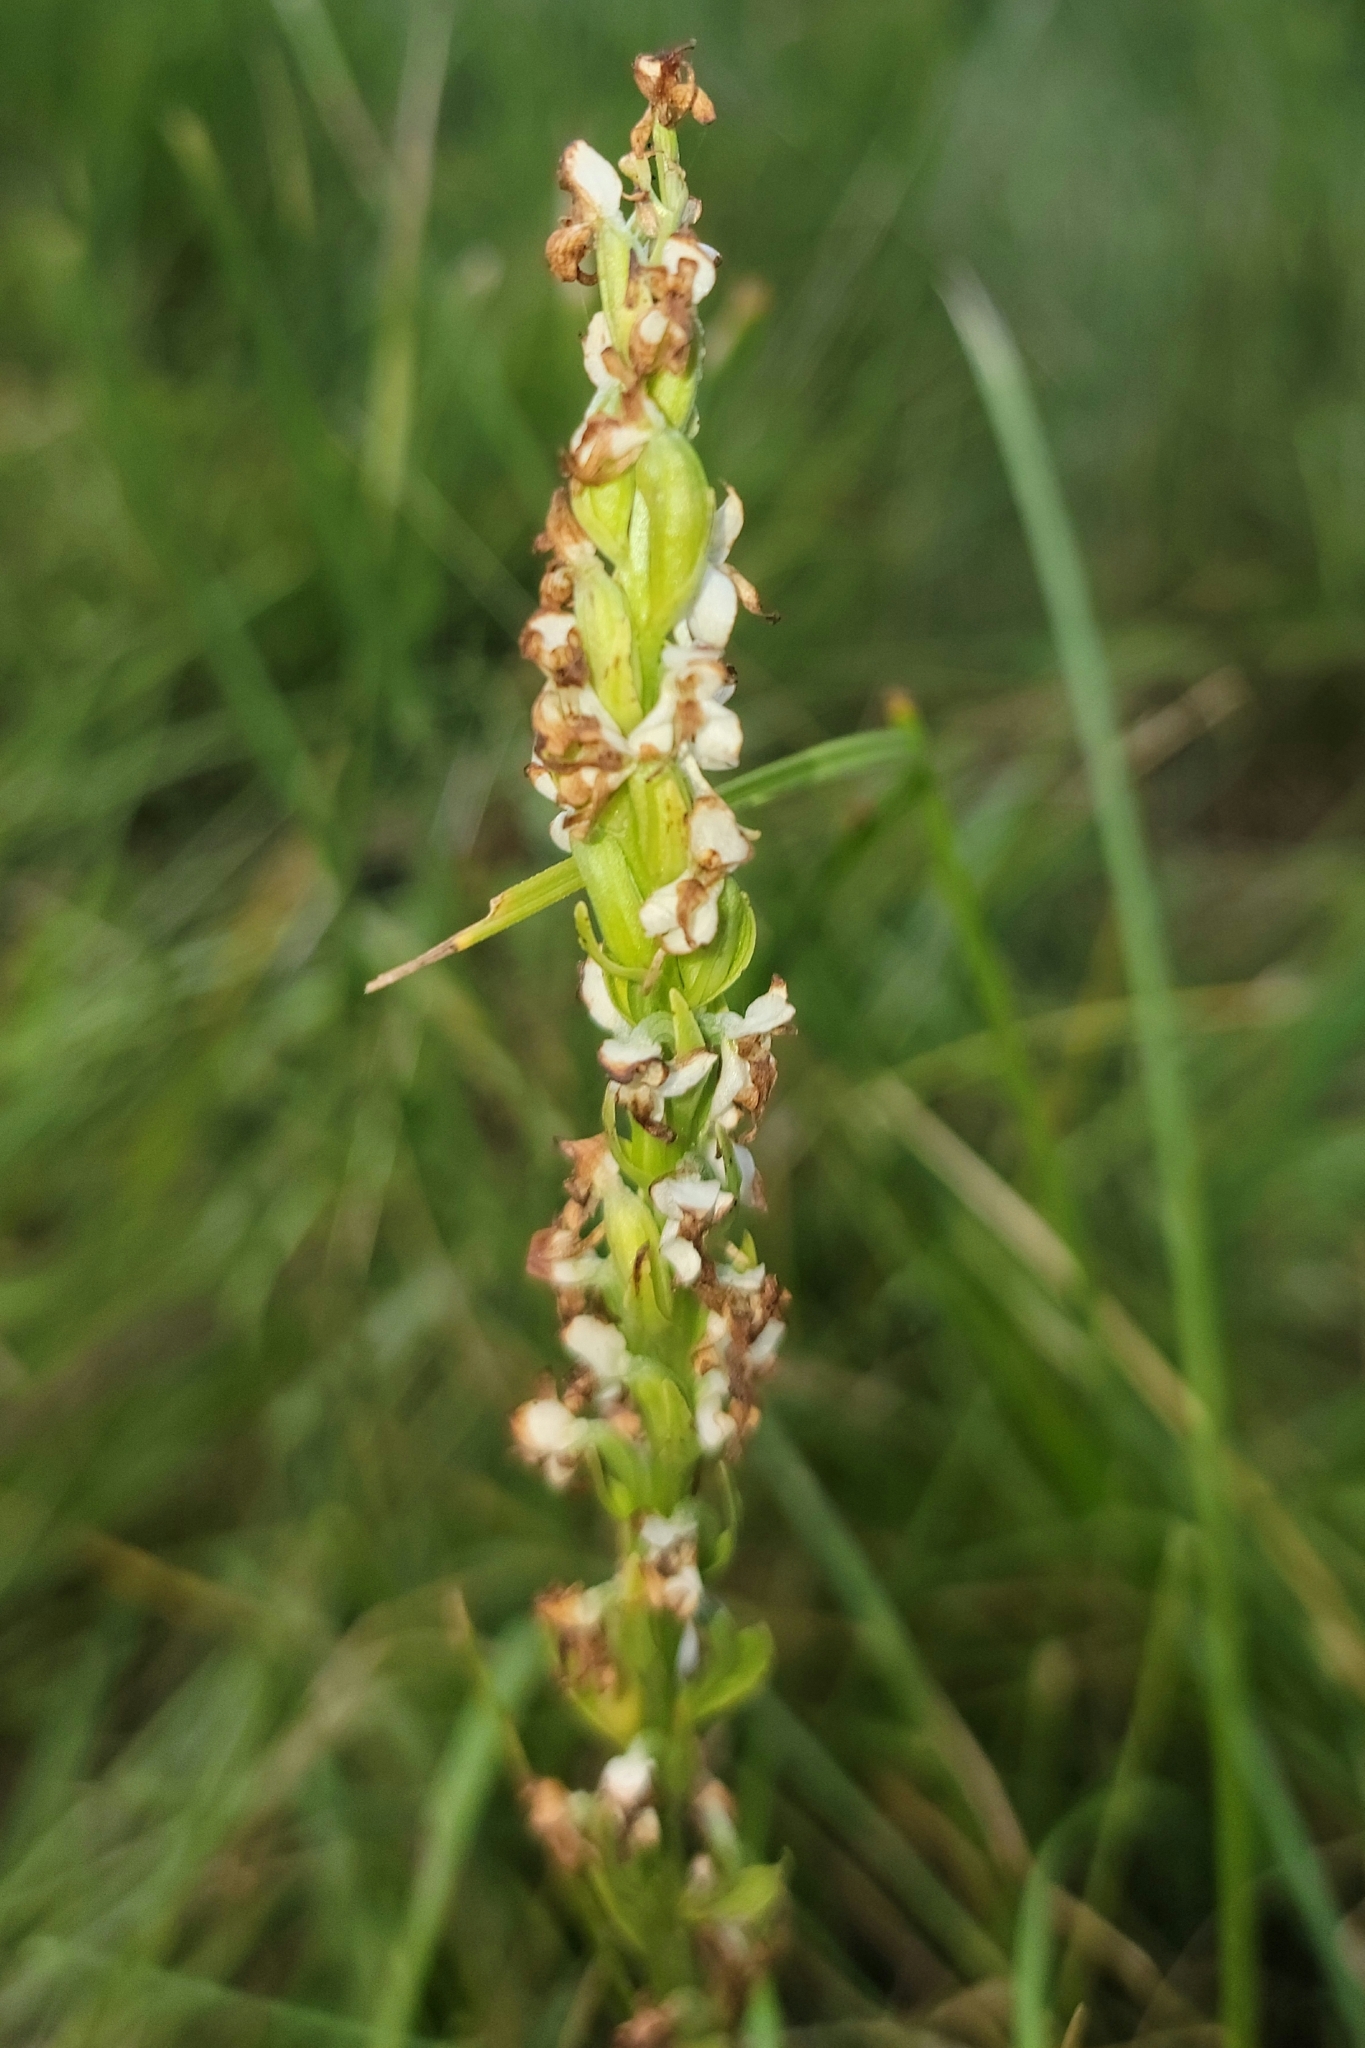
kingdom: Plantae
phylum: Tracheophyta
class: Liliopsida
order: Asparagales
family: Orchidaceae
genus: Platanthera
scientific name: Platanthera dilatata
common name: Bog candles
